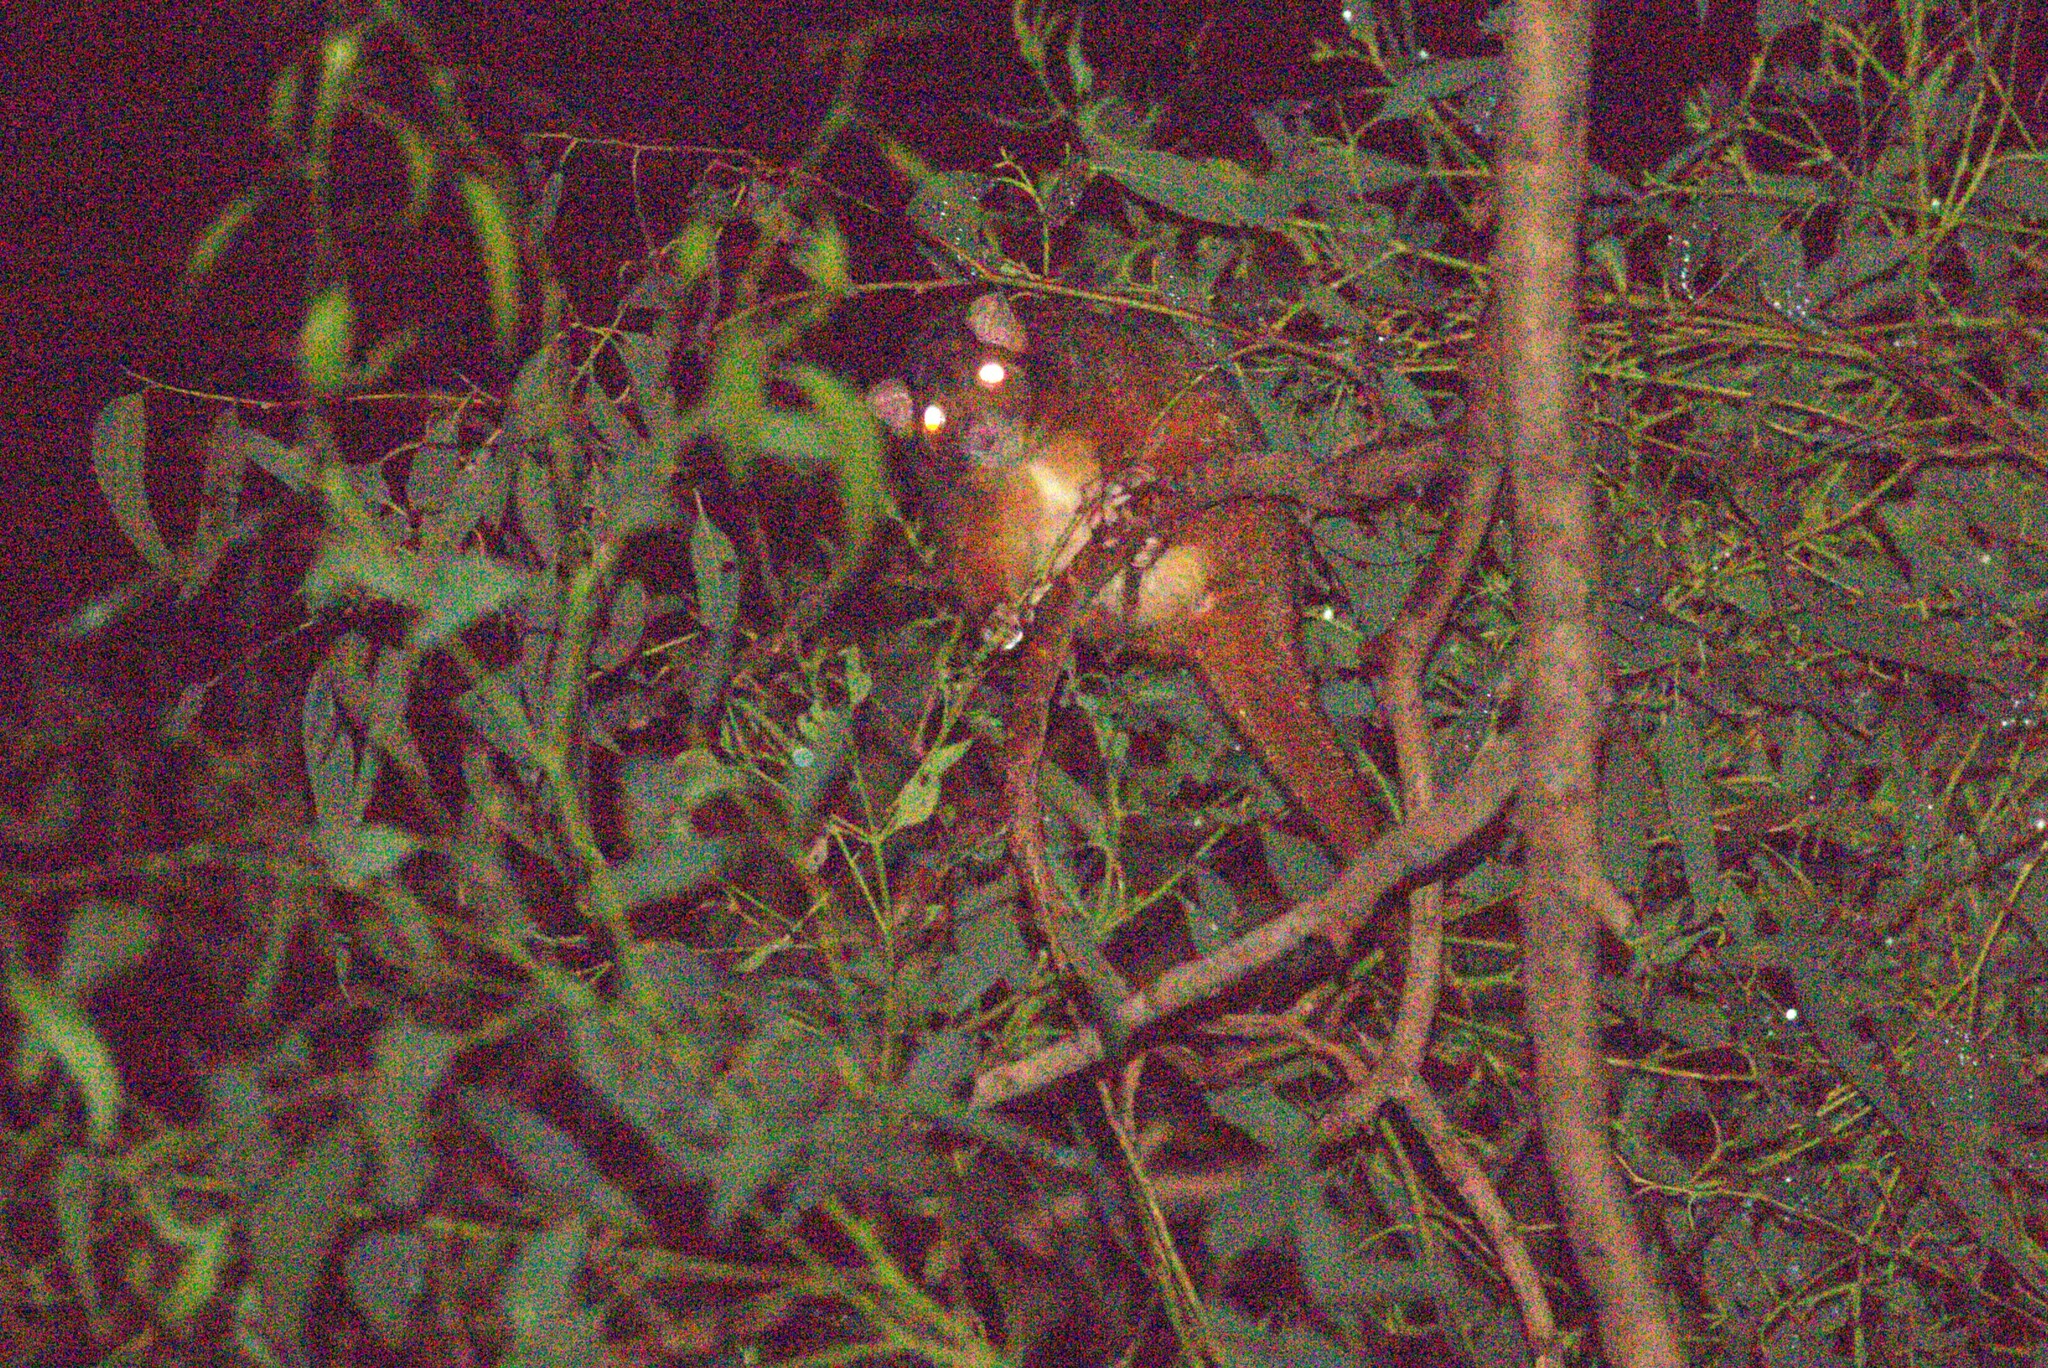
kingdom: Animalia
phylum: Chordata
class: Mammalia
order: Diprotodontia
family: Pseudocheiridae
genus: Pseudocheirus
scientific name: Pseudocheirus peregrinus
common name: Common ringtail possum
